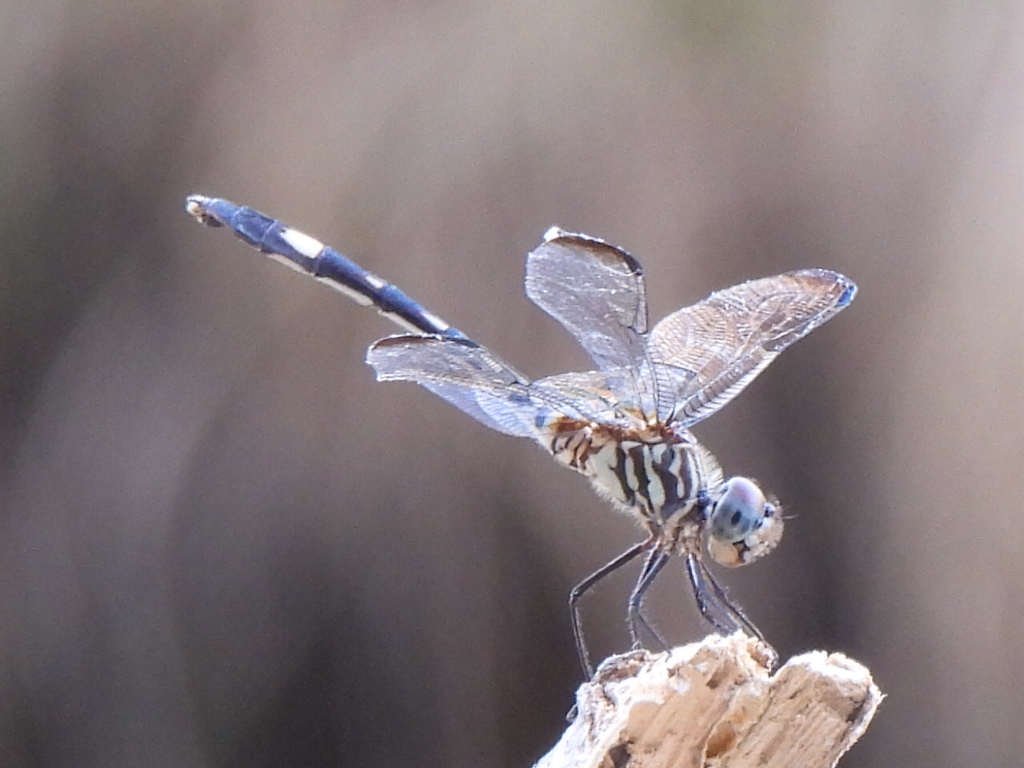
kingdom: Animalia
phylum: Arthropoda
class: Insecta
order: Odonata
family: Libellulidae
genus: Dythemis
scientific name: Dythemis velox
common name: Swift setwing
